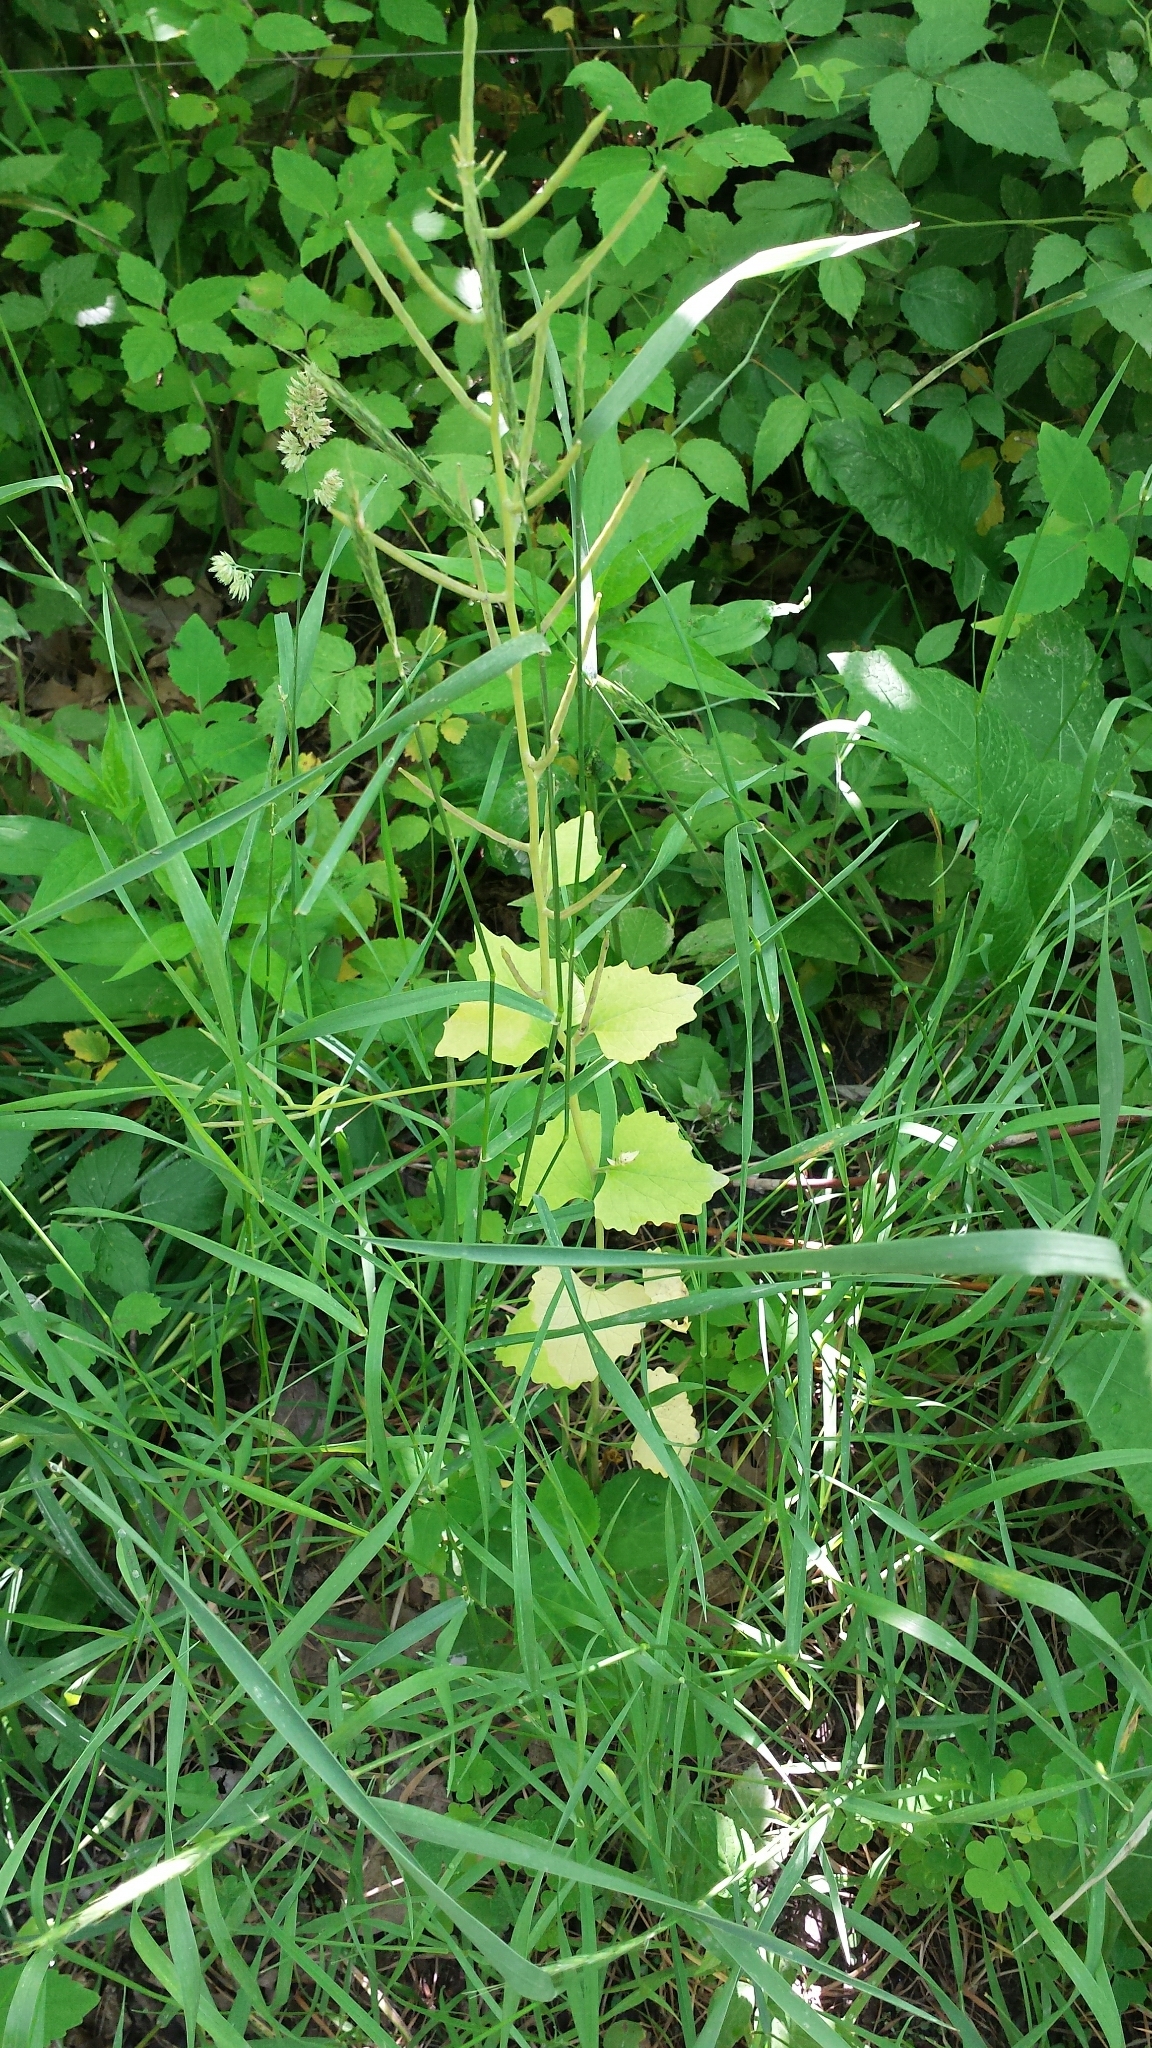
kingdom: Plantae
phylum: Tracheophyta
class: Magnoliopsida
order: Brassicales
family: Brassicaceae
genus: Alliaria
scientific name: Alliaria petiolata
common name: Garlic mustard
